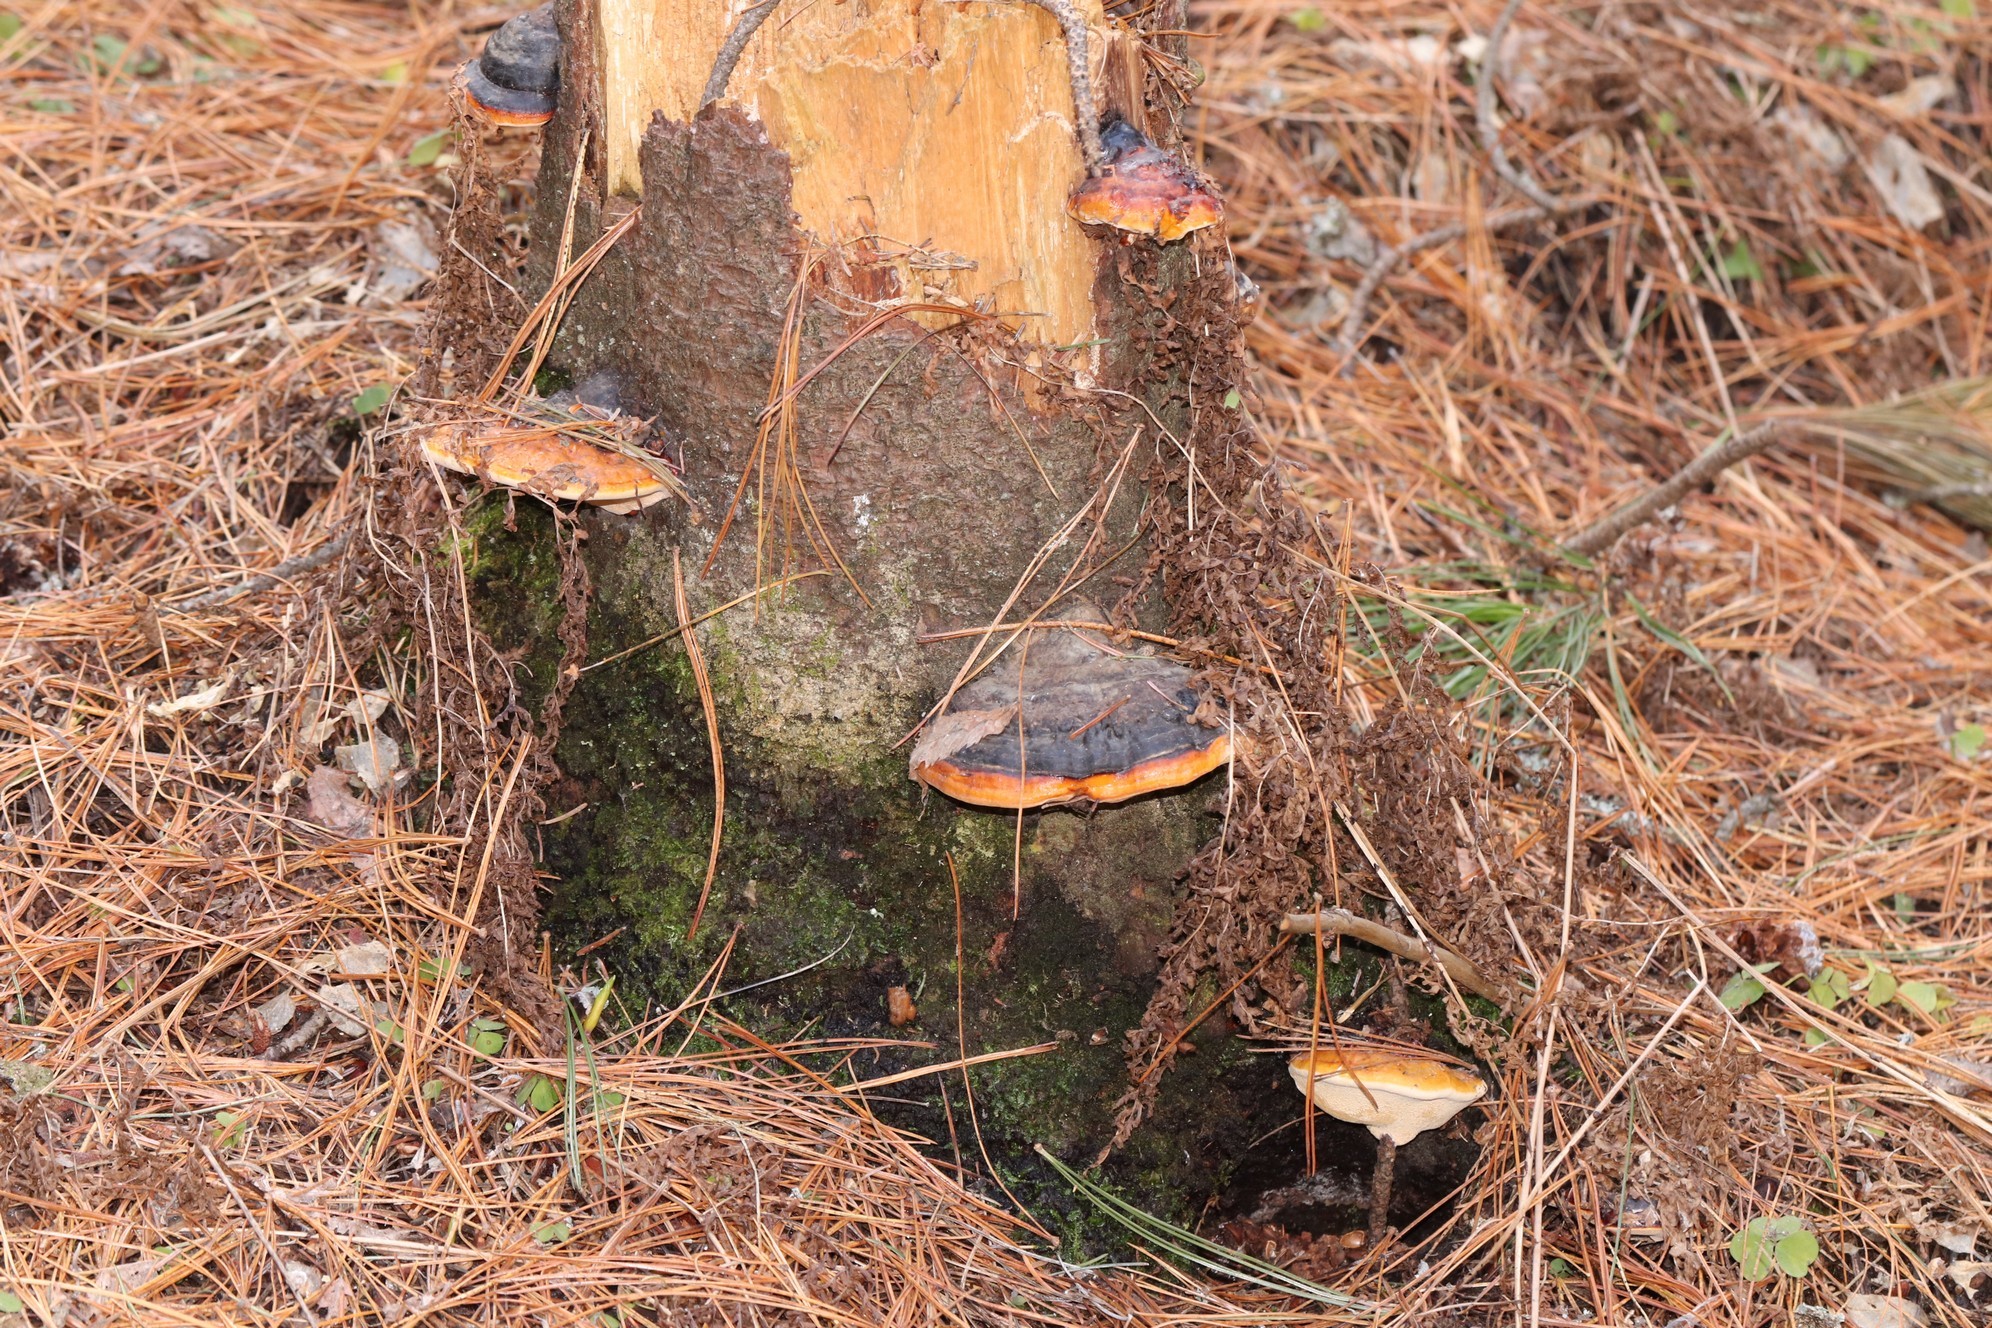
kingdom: Fungi
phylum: Basidiomycota
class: Agaricomycetes
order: Polyporales
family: Fomitopsidaceae
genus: Fomitopsis
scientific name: Fomitopsis pinicola
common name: Red-belted bracket
